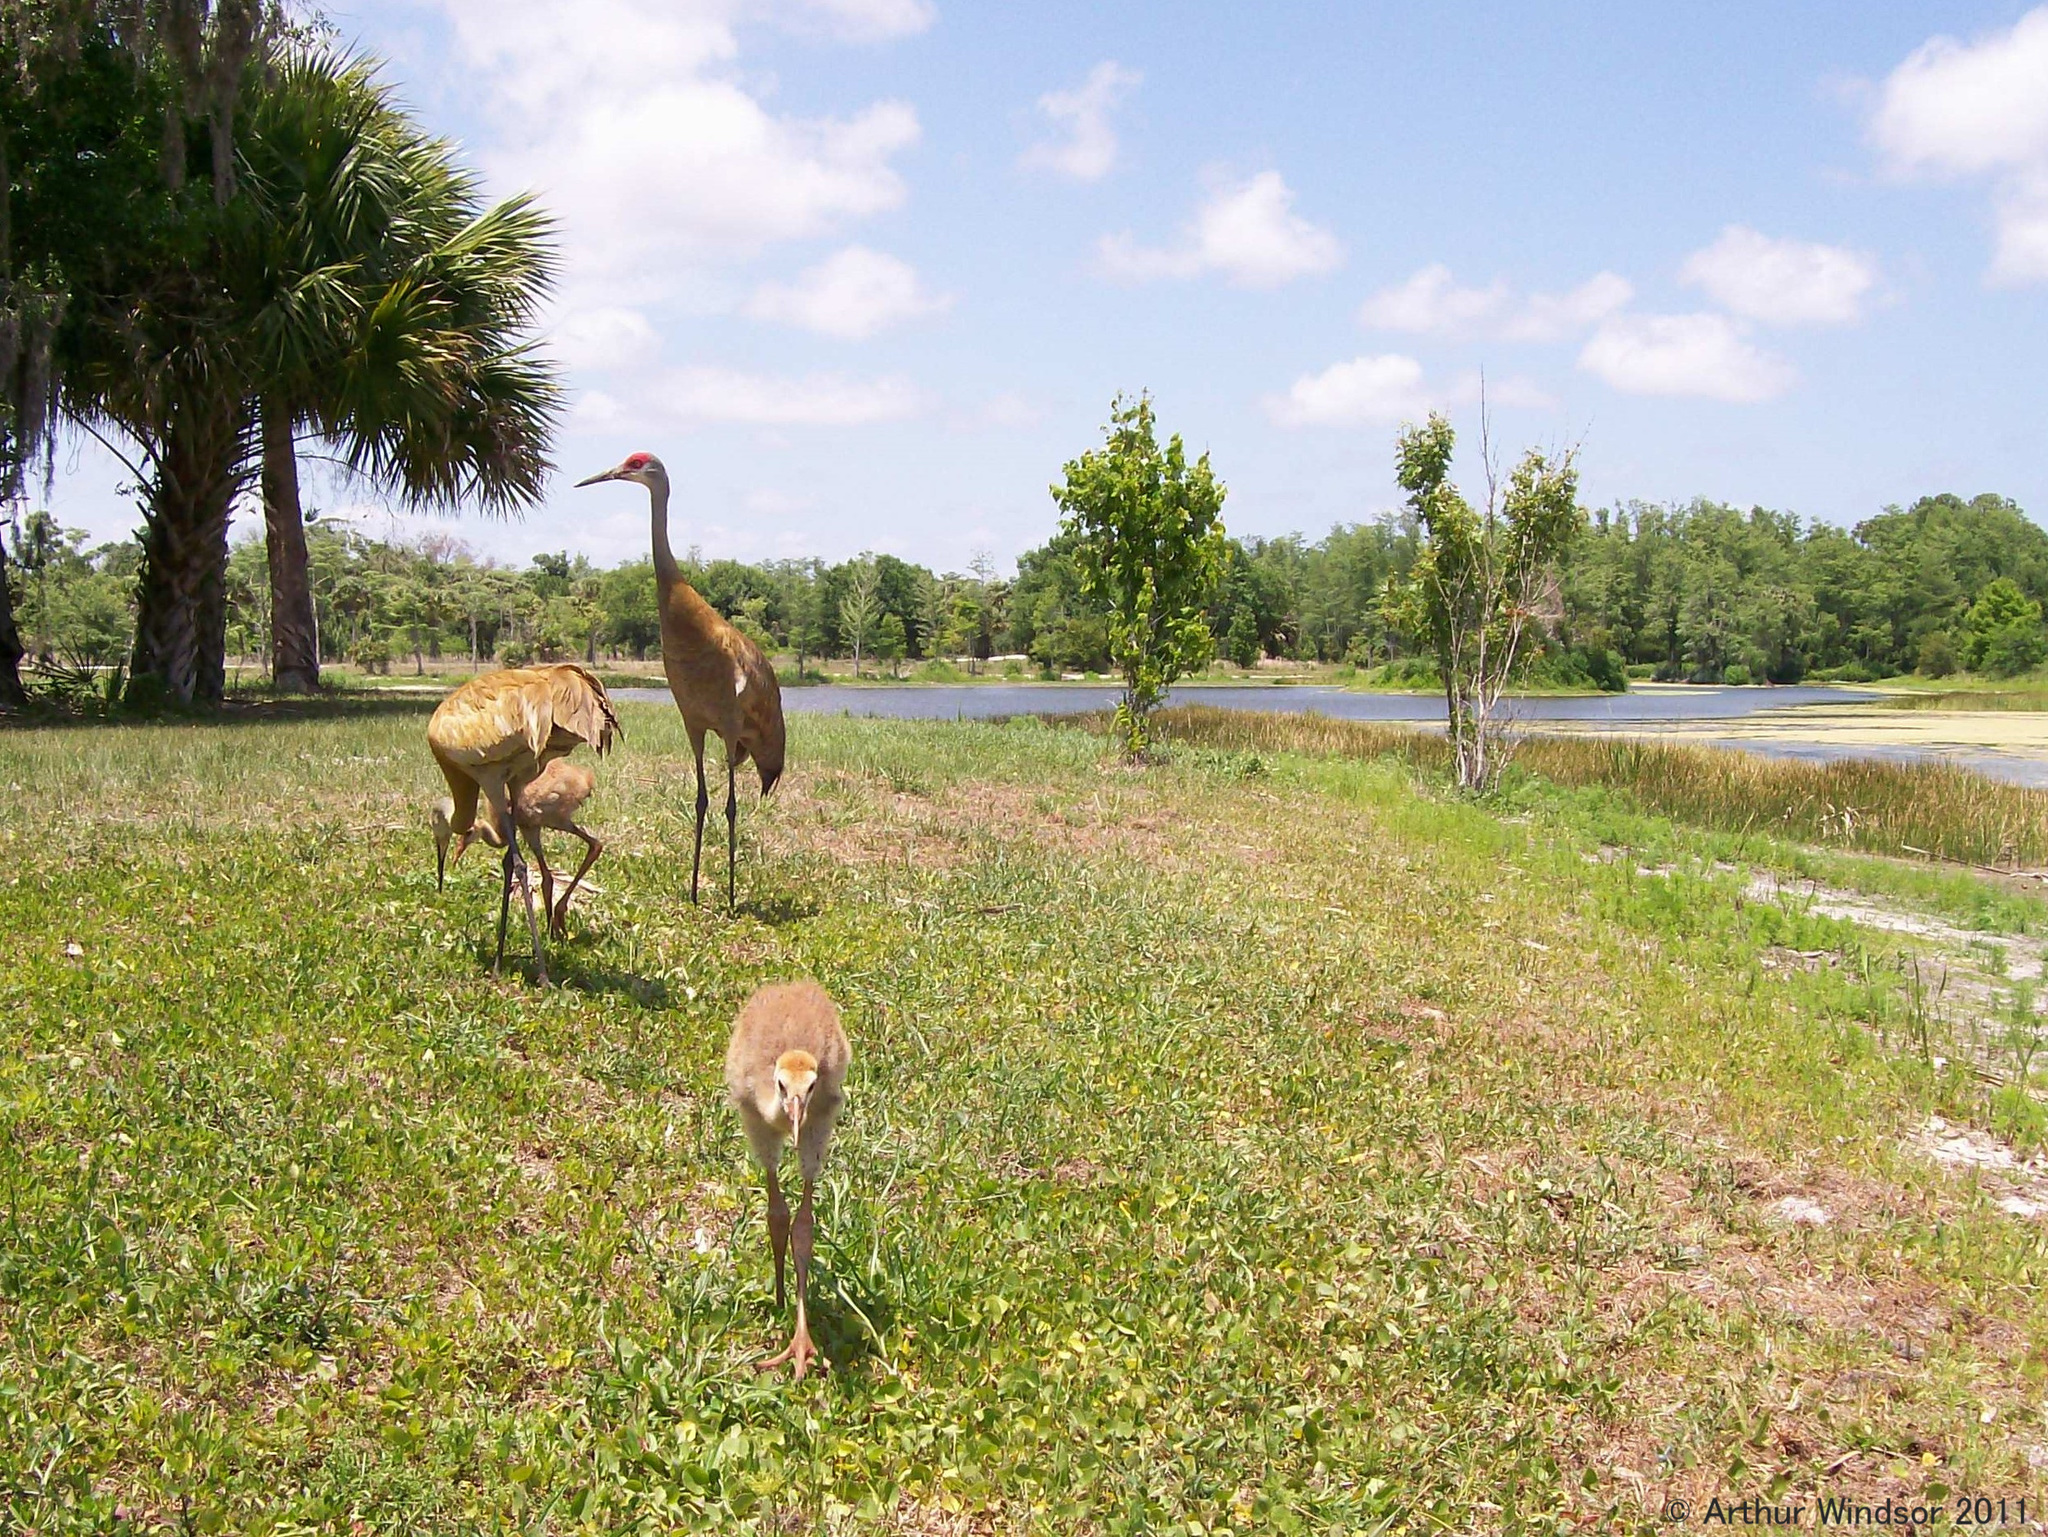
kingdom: Animalia
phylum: Chordata
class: Aves
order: Gruiformes
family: Gruidae
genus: Grus
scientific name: Grus canadensis
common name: Sandhill crane
